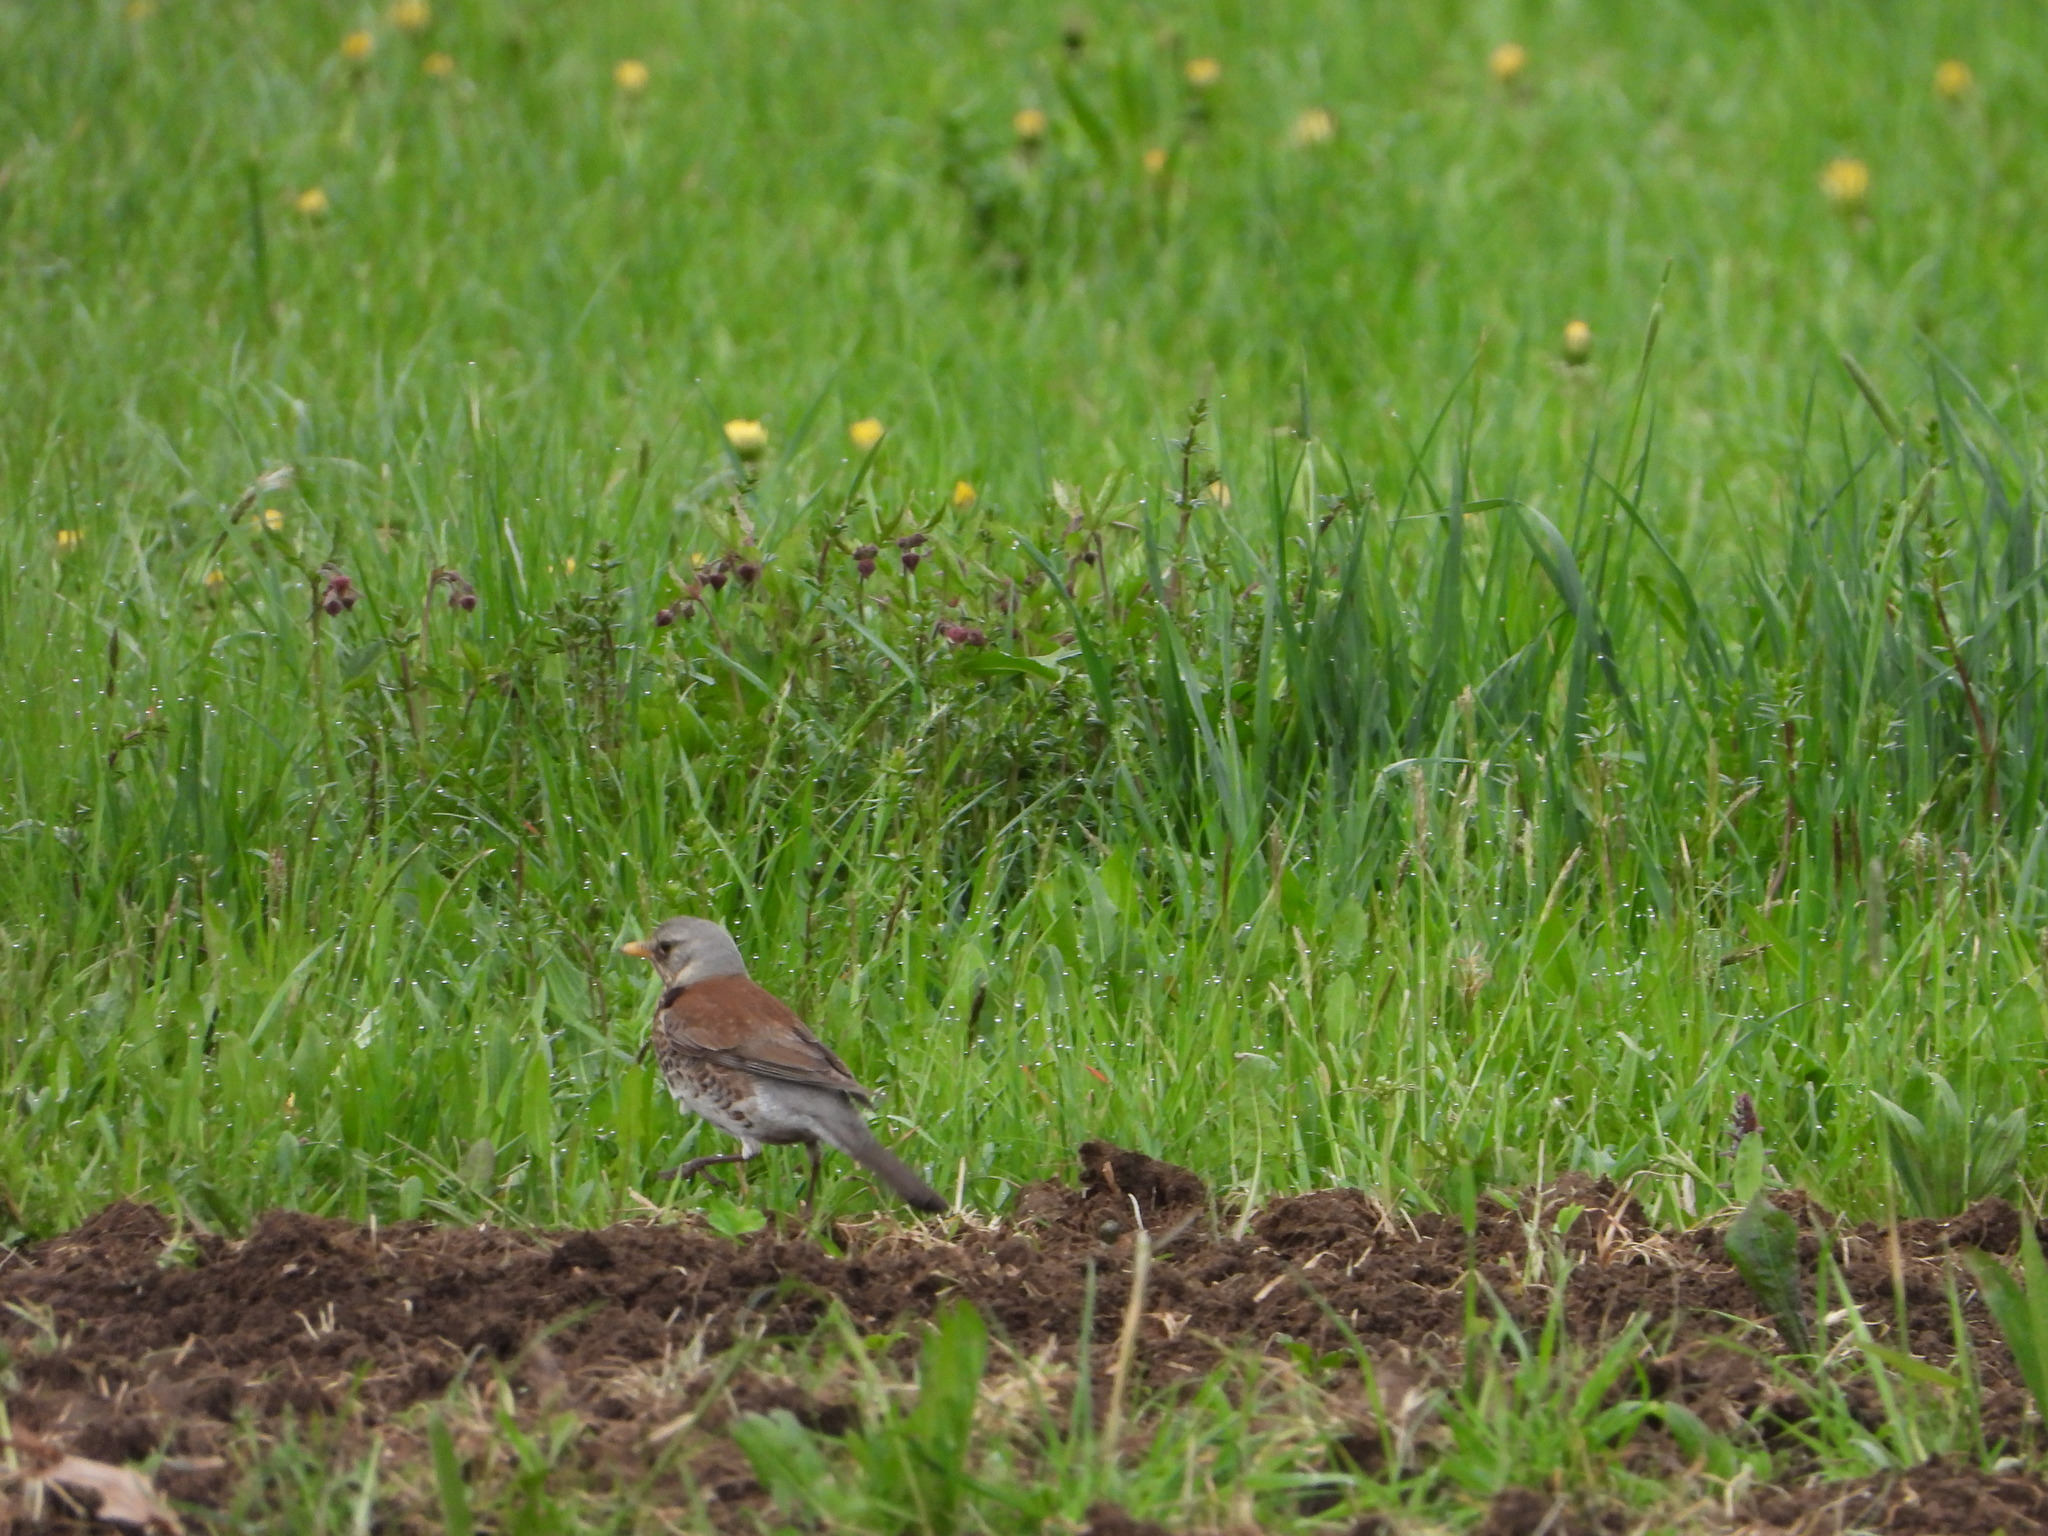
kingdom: Animalia
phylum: Chordata
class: Aves
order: Passeriformes
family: Turdidae
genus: Turdus
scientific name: Turdus pilaris
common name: Fieldfare
